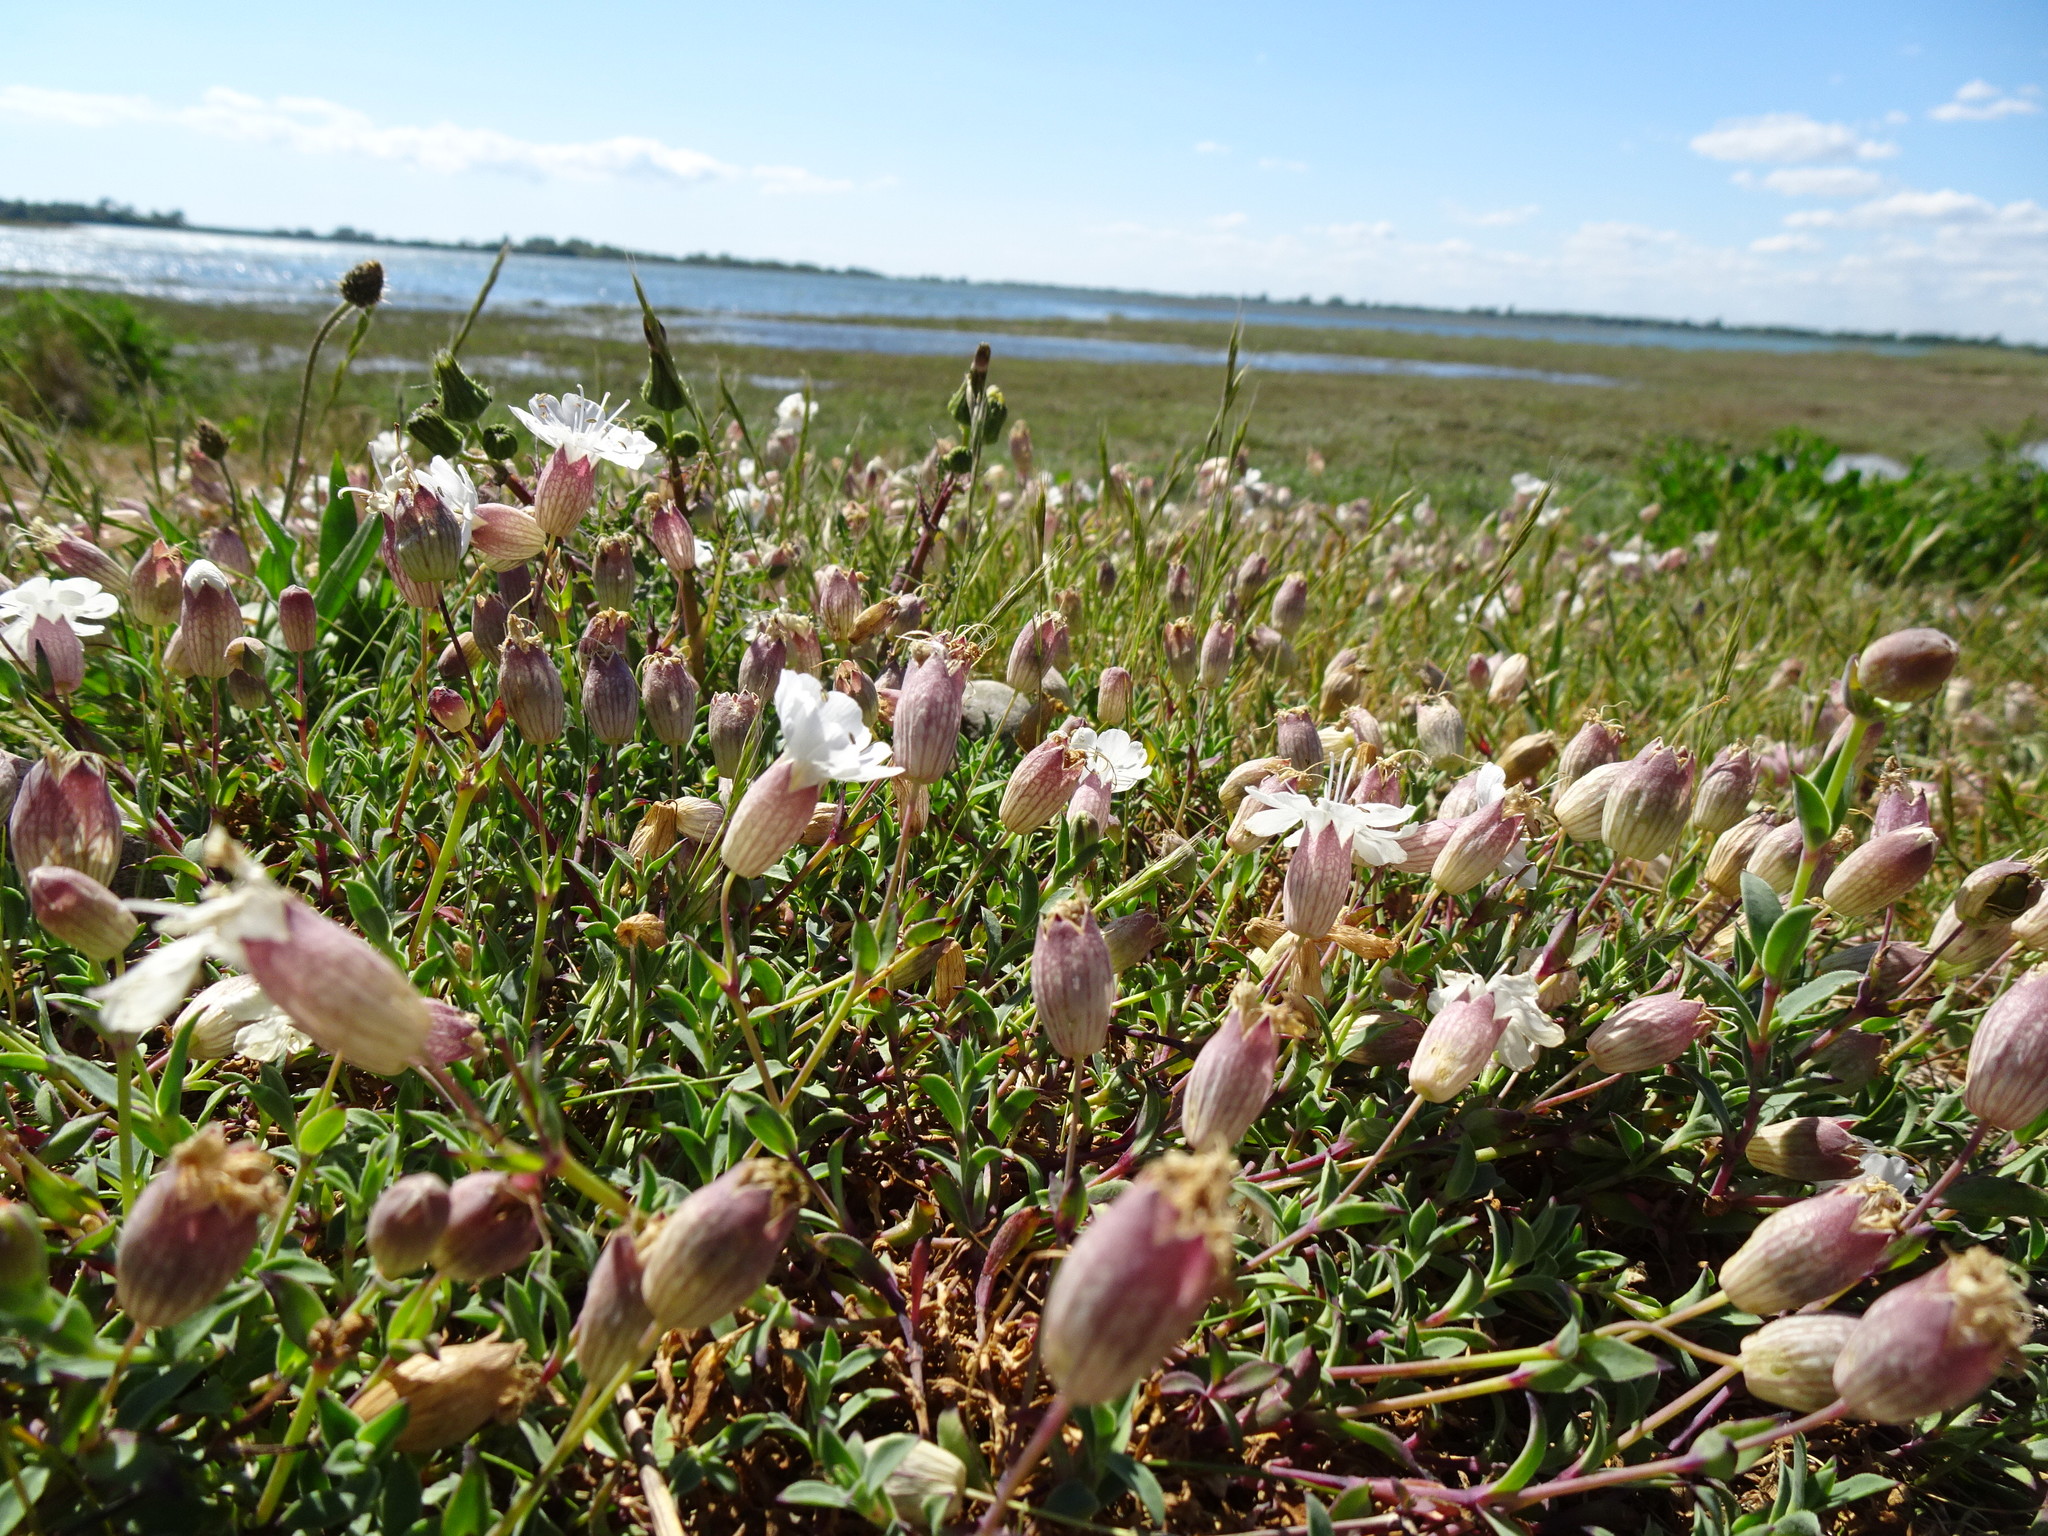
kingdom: Plantae
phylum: Tracheophyta
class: Magnoliopsida
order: Caryophyllales
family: Caryophyllaceae
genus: Silene
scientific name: Silene uniflora
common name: Sea campion
